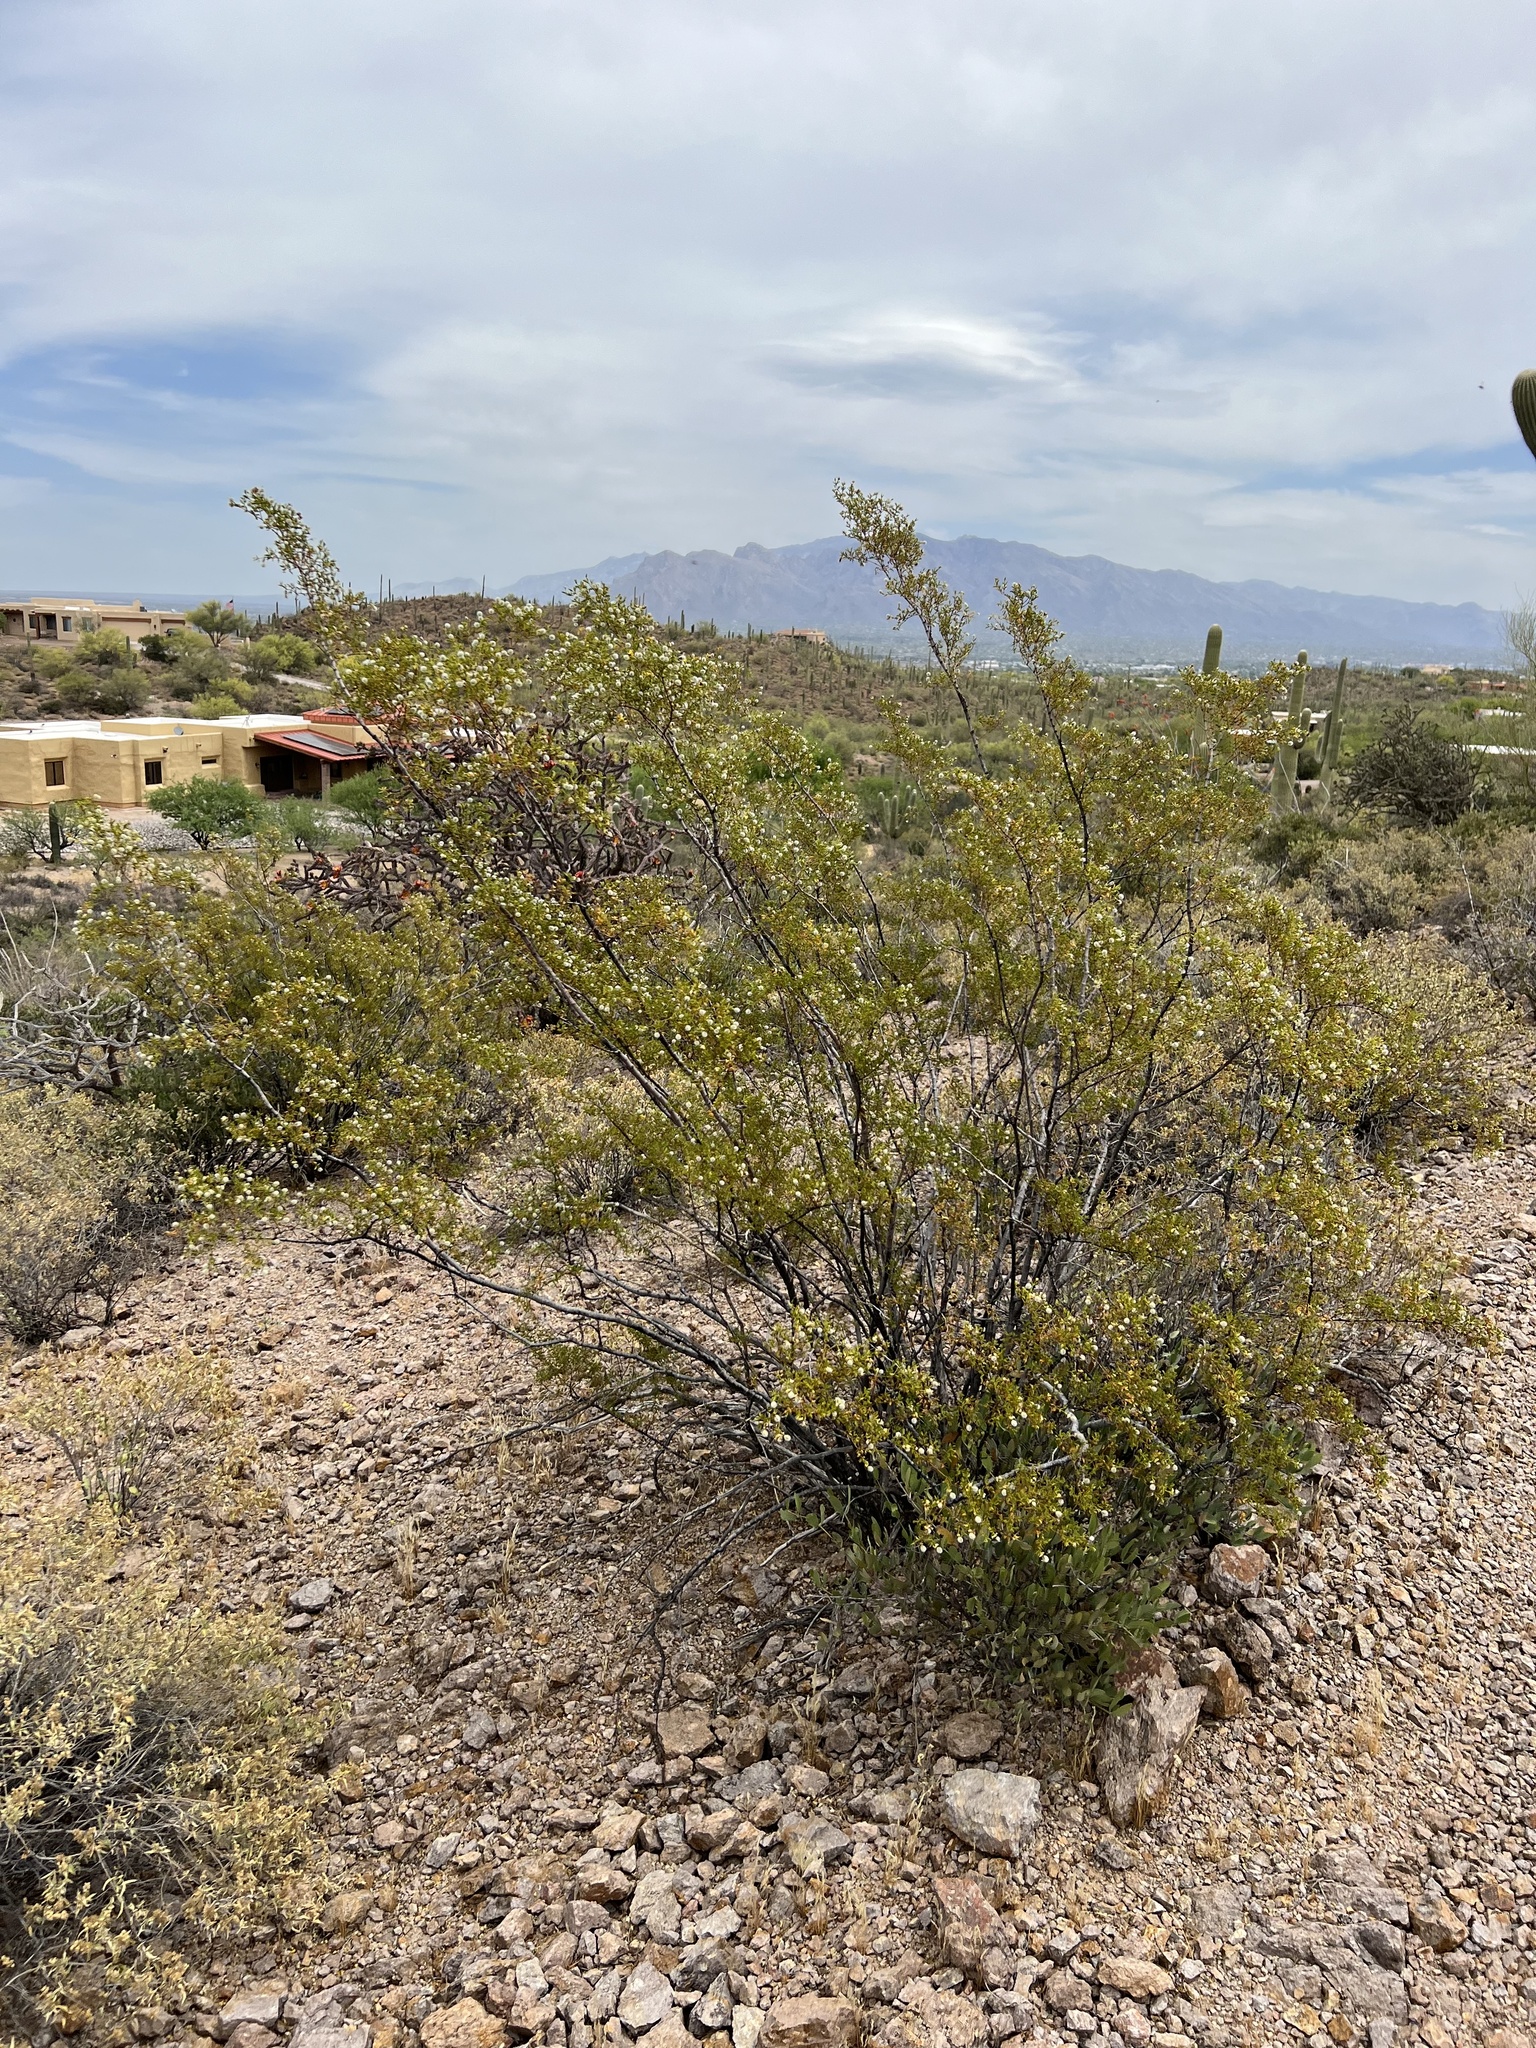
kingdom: Plantae
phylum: Tracheophyta
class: Magnoliopsida
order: Zygophyllales
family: Zygophyllaceae
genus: Larrea
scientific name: Larrea tridentata
